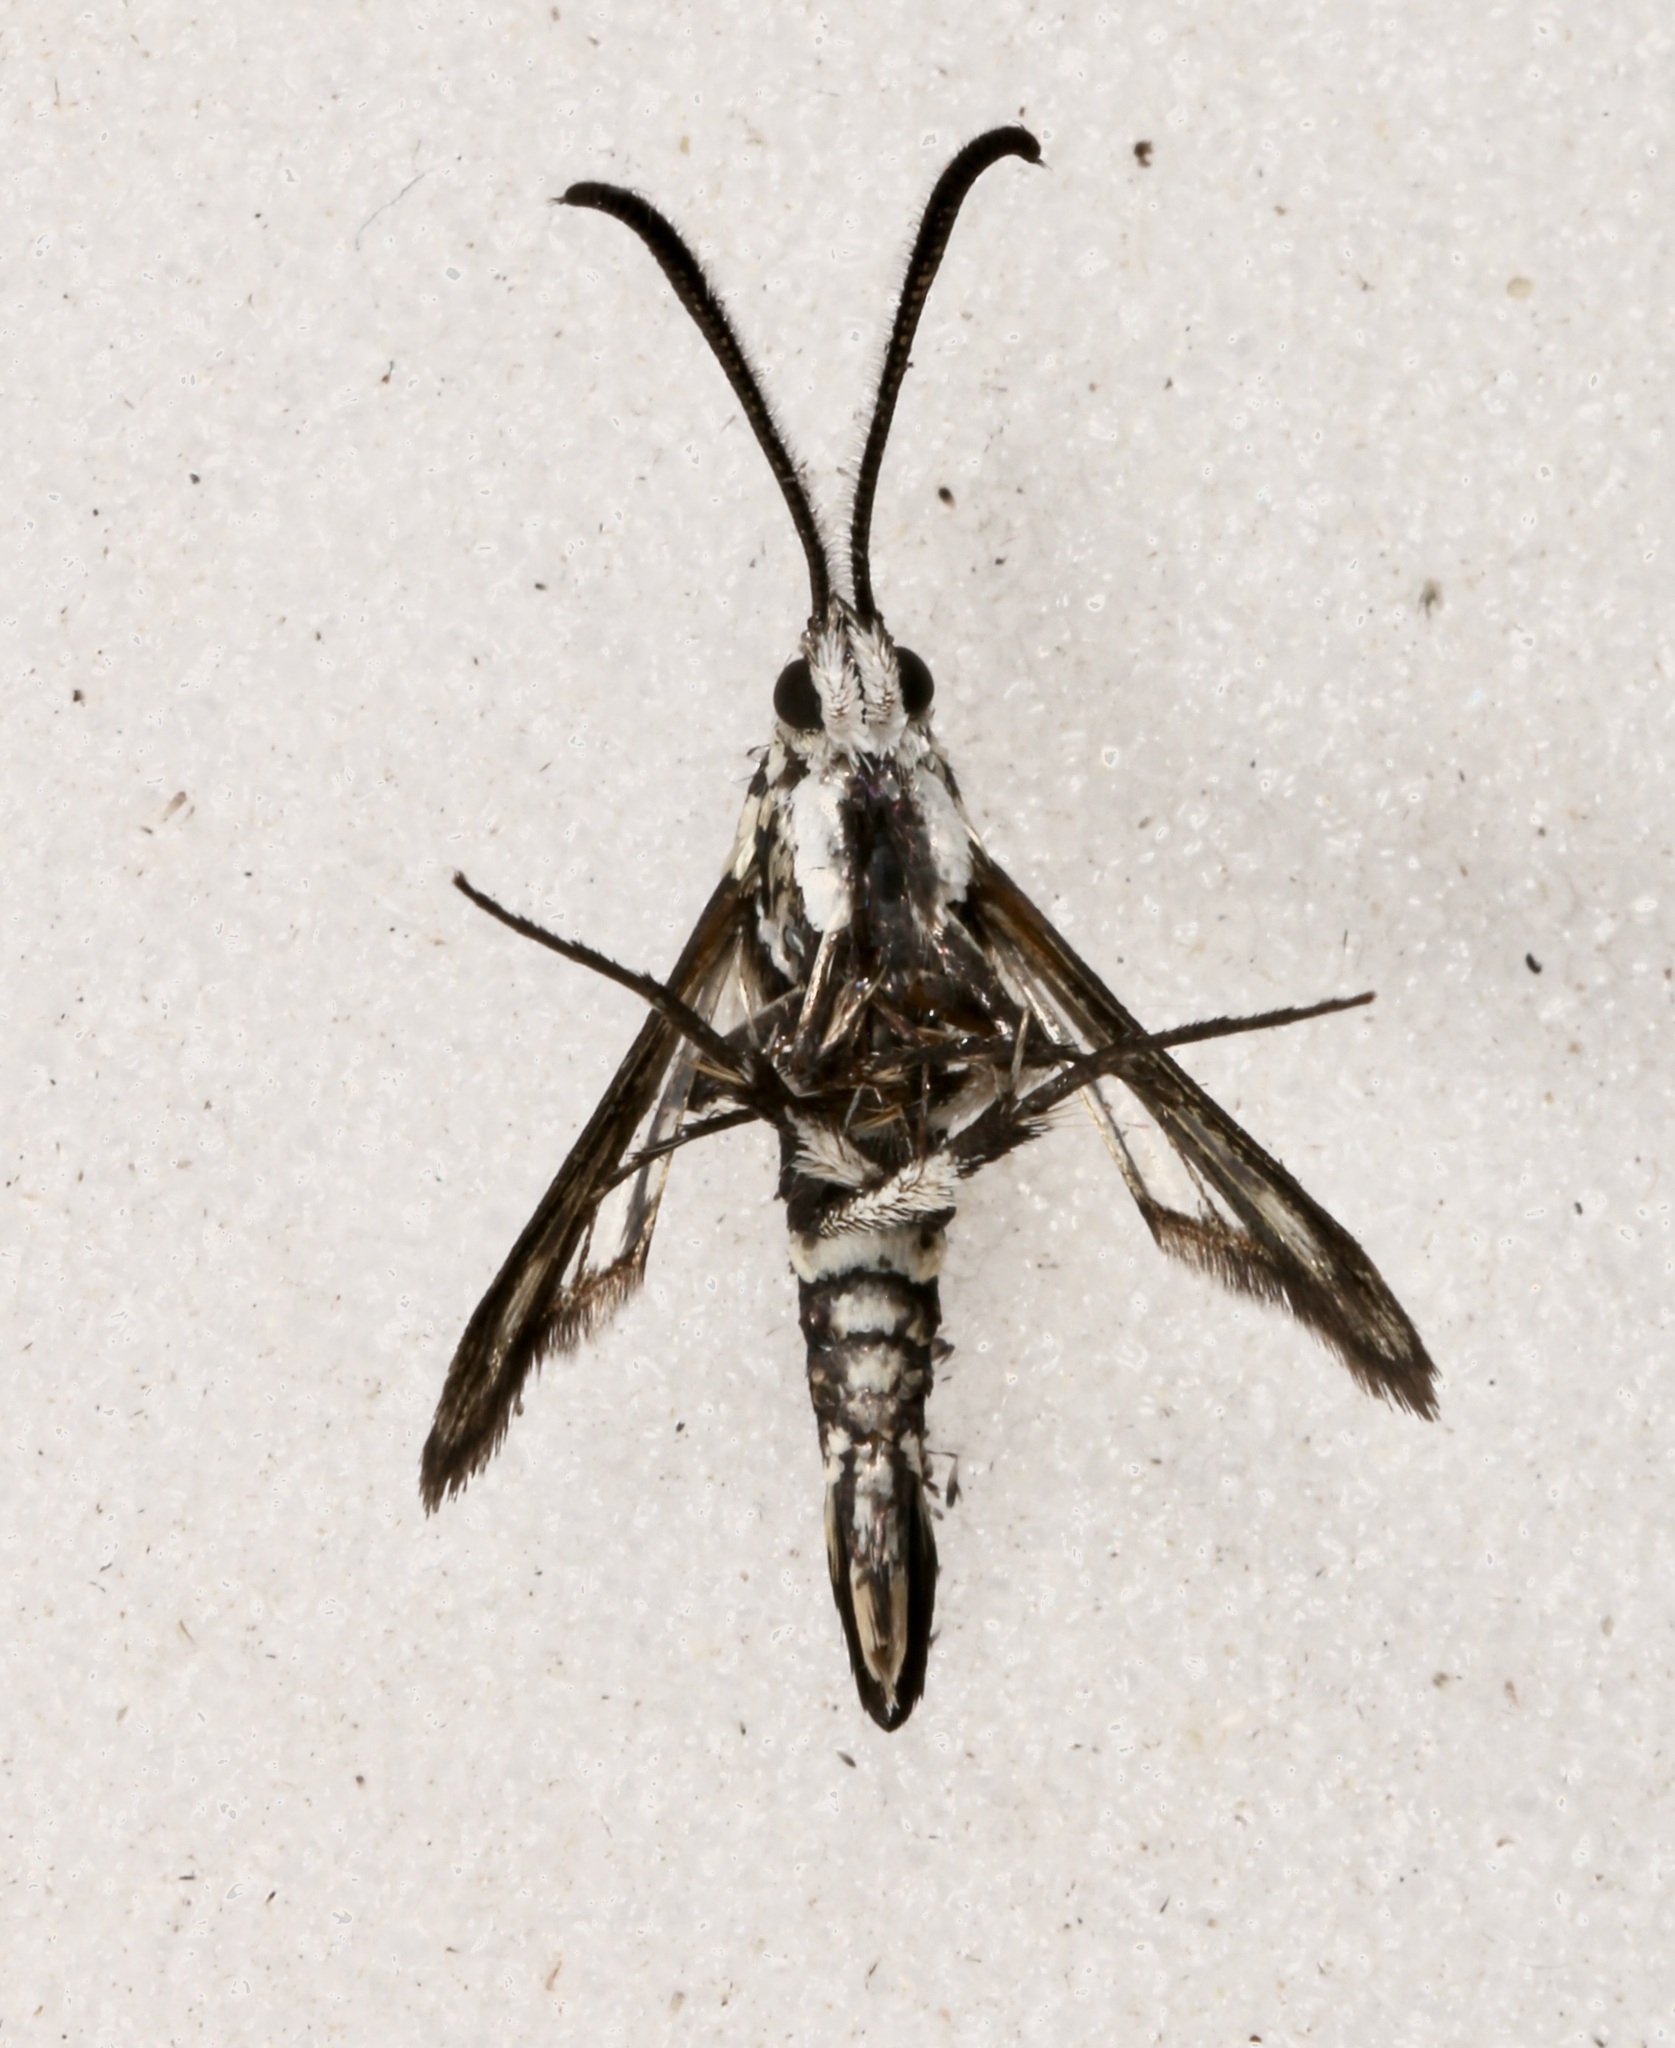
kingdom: Animalia
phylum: Arthropoda
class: Insecta
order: Lepidoptera
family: Sesiidae
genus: Penstemonia
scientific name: Penstemonia hennei
